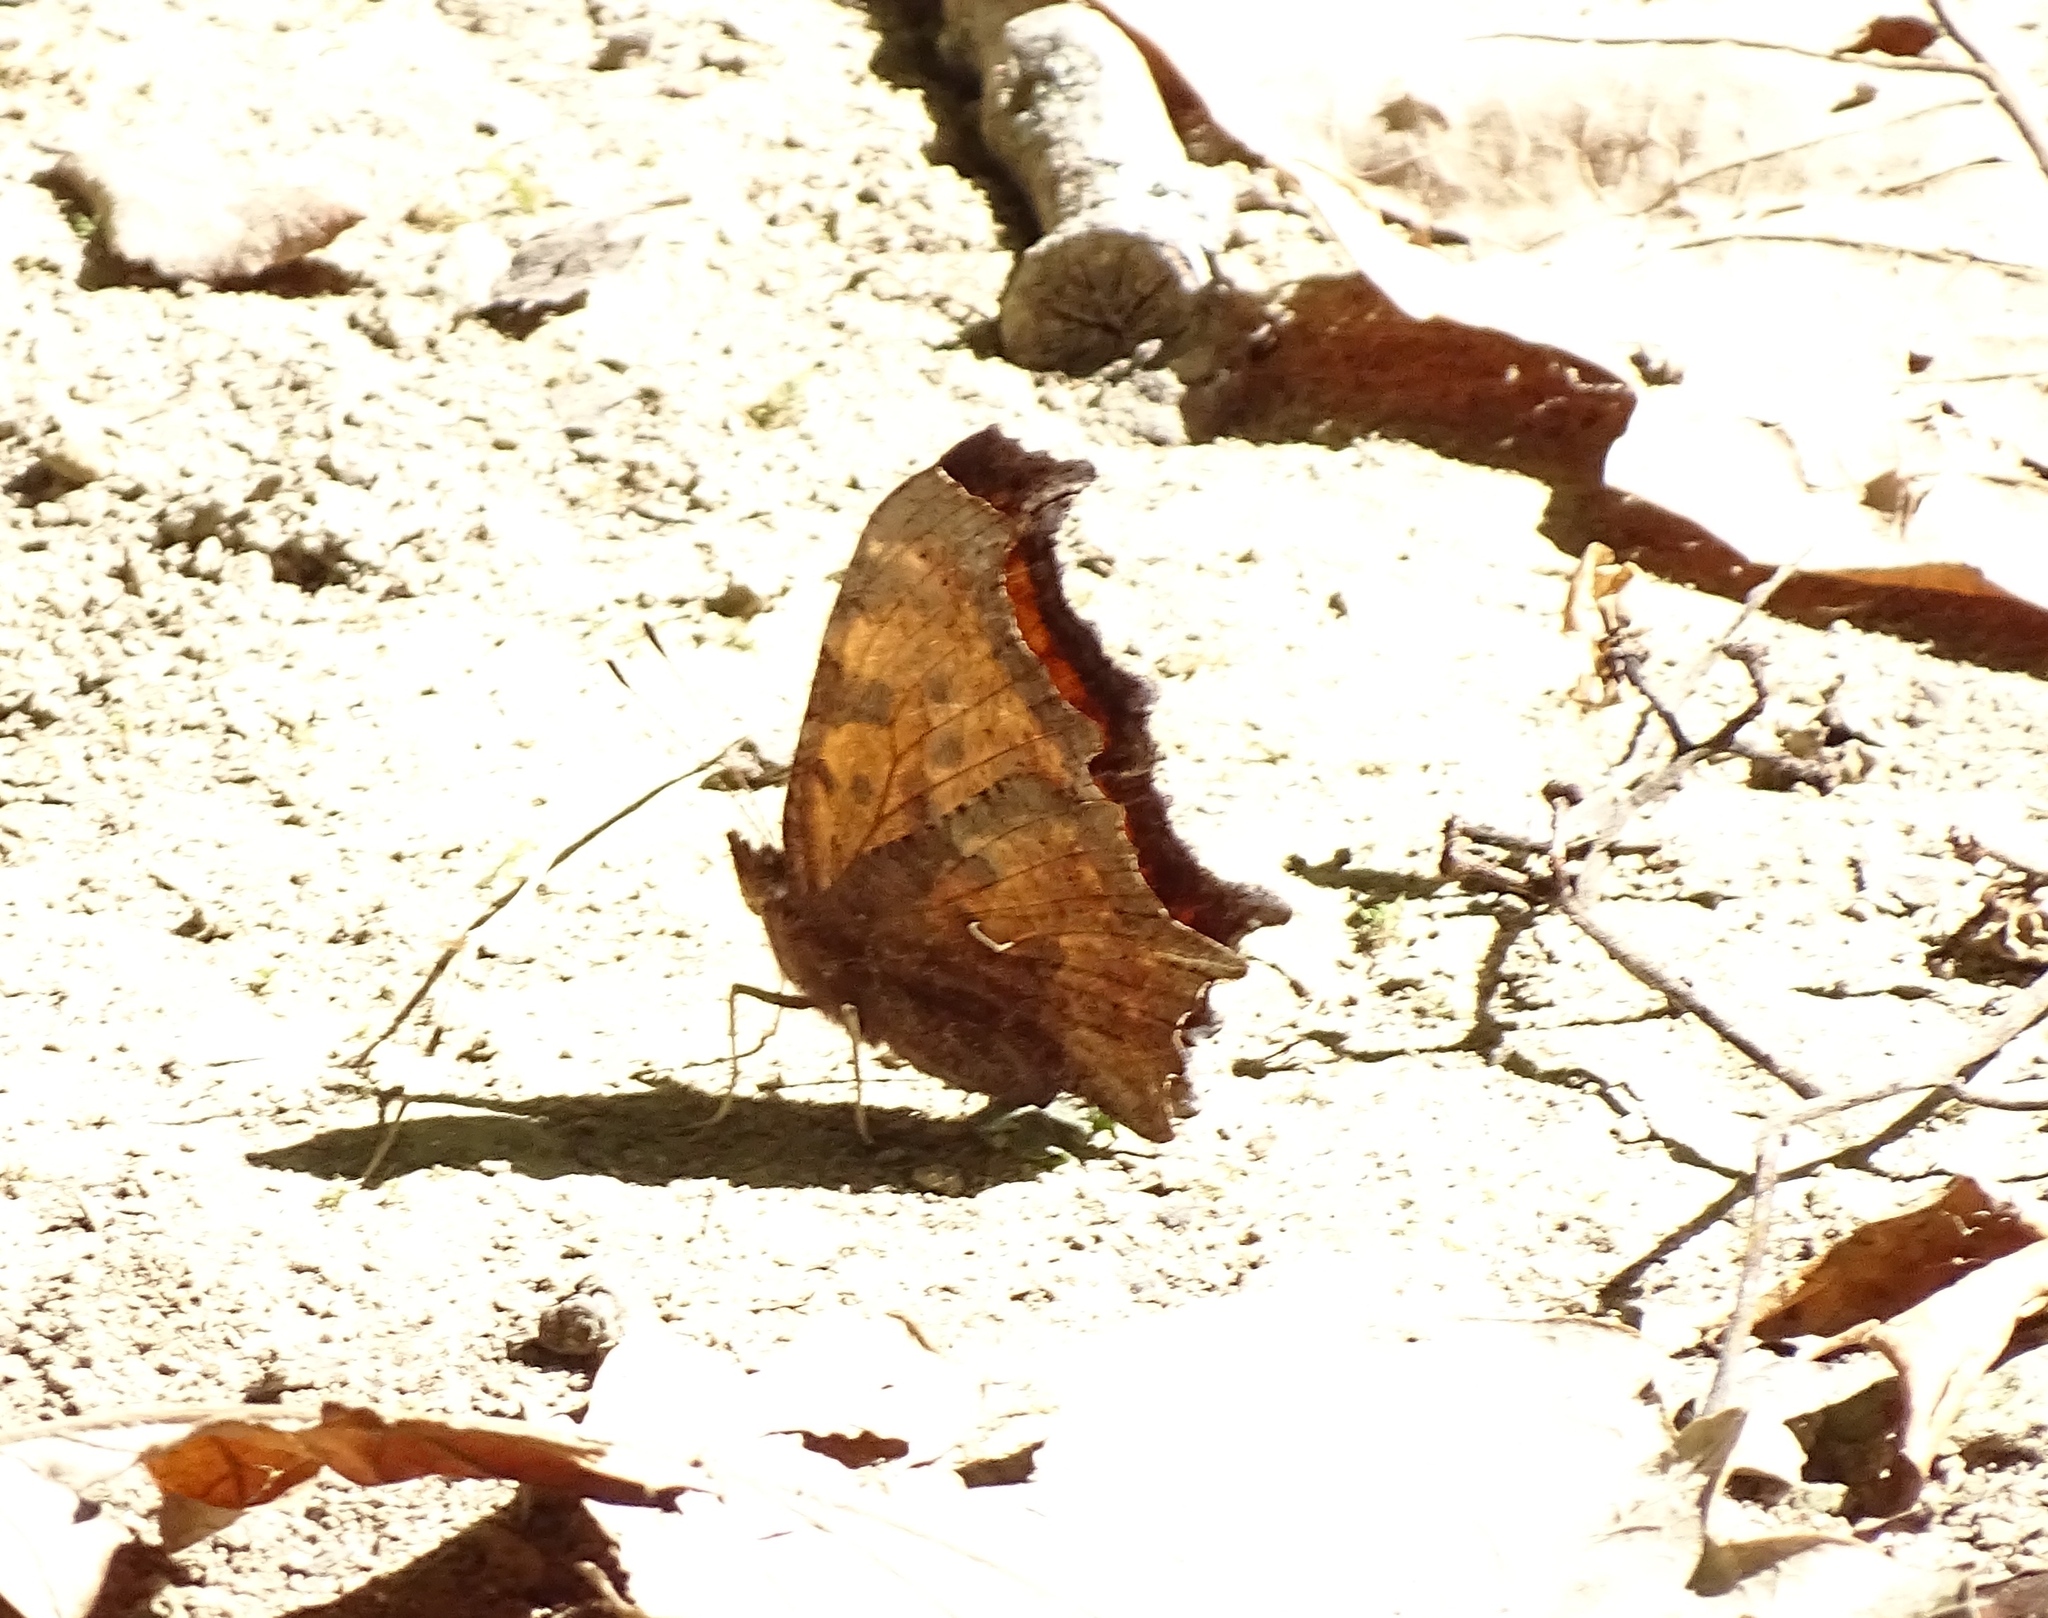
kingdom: Animalia
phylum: Arthropoda
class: Insecta
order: Lepidoptera
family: Nymphalidae
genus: Polygonia
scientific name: Polygonia comma
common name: Eastern comma
